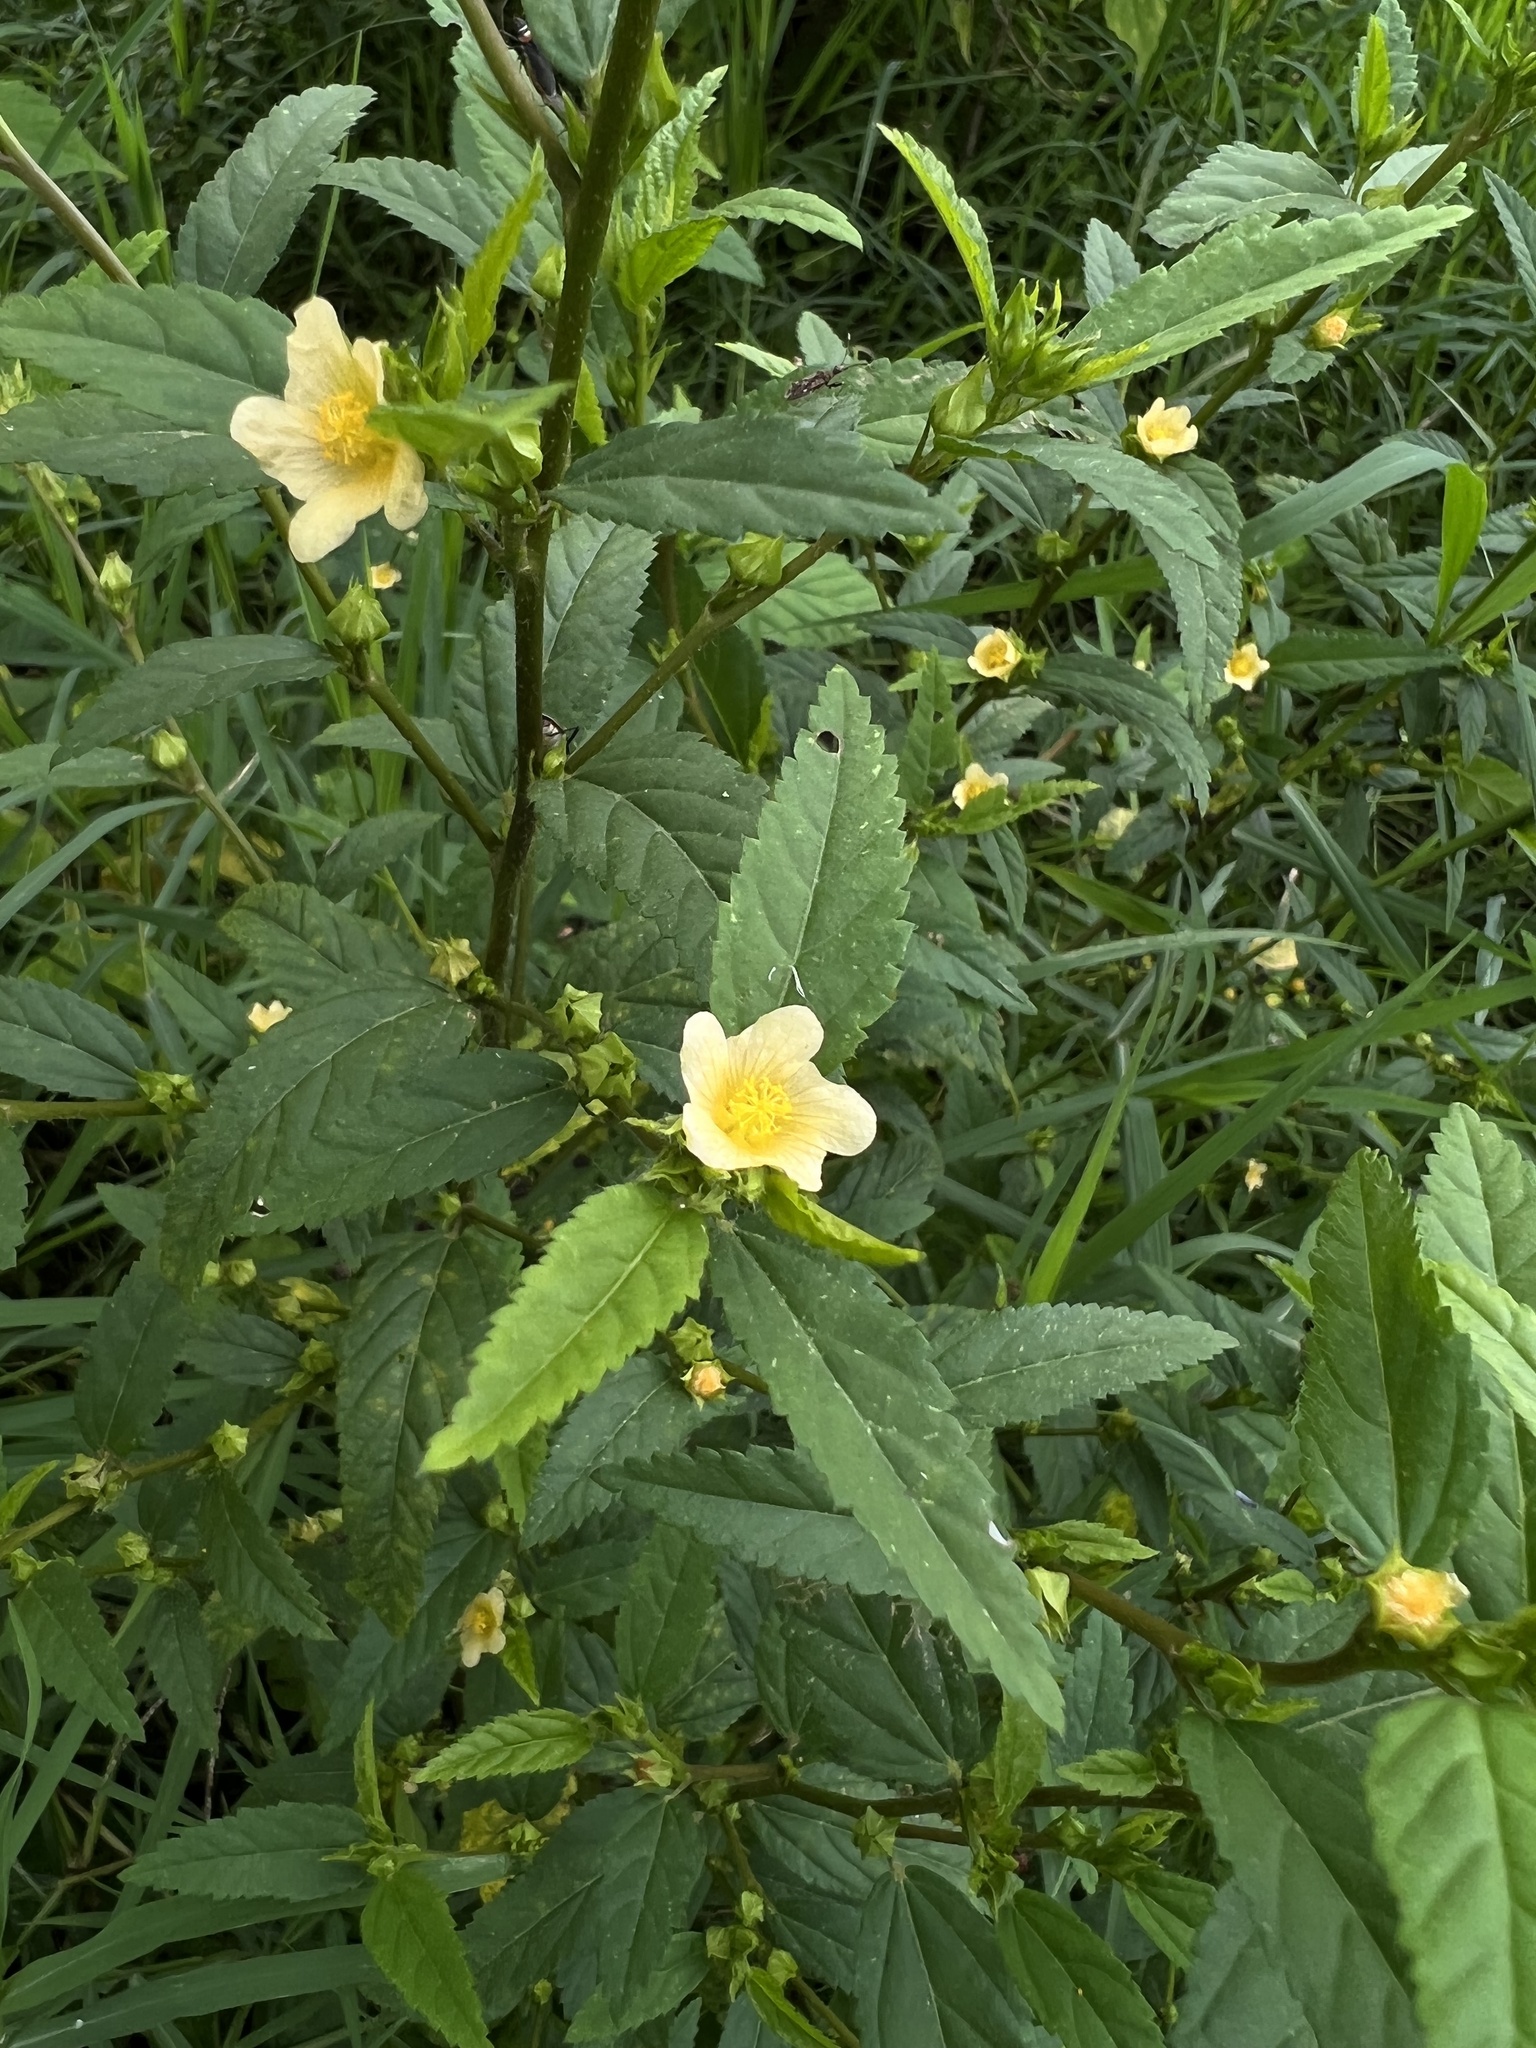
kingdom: Plantae
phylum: Tracheophyta
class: Magnoliopsida
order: Malvales
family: Malvaceae
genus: Sida
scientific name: Sida rhombifolia
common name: Queensland-hemp
